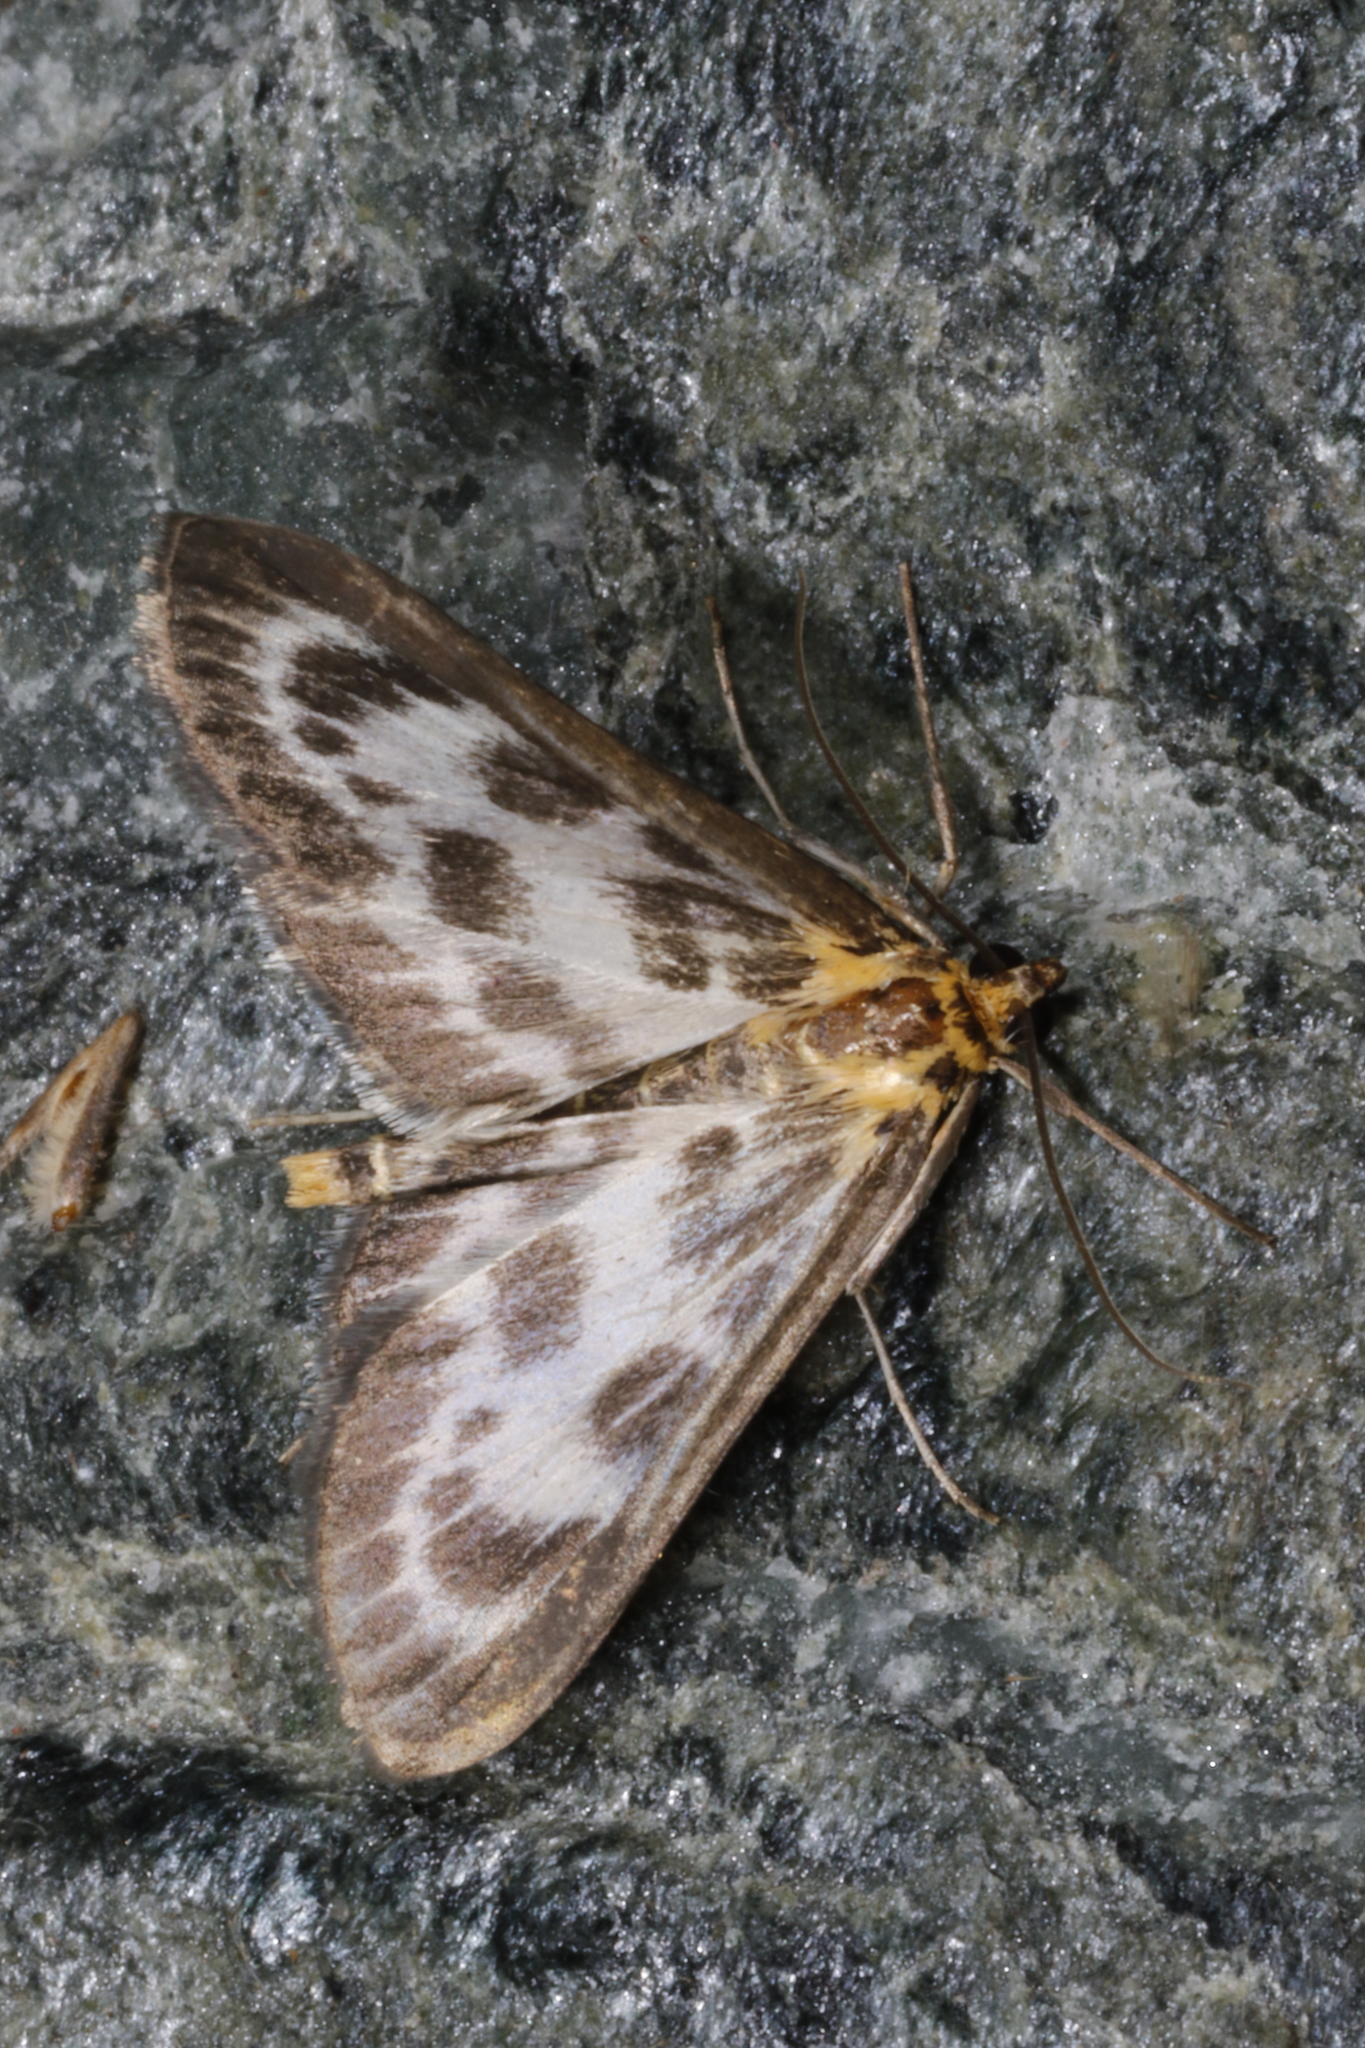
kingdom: Animalia
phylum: Arthropoda
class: Insecta
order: Lepidoptera
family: Crambidae
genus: Anania
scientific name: Anania hortulata
